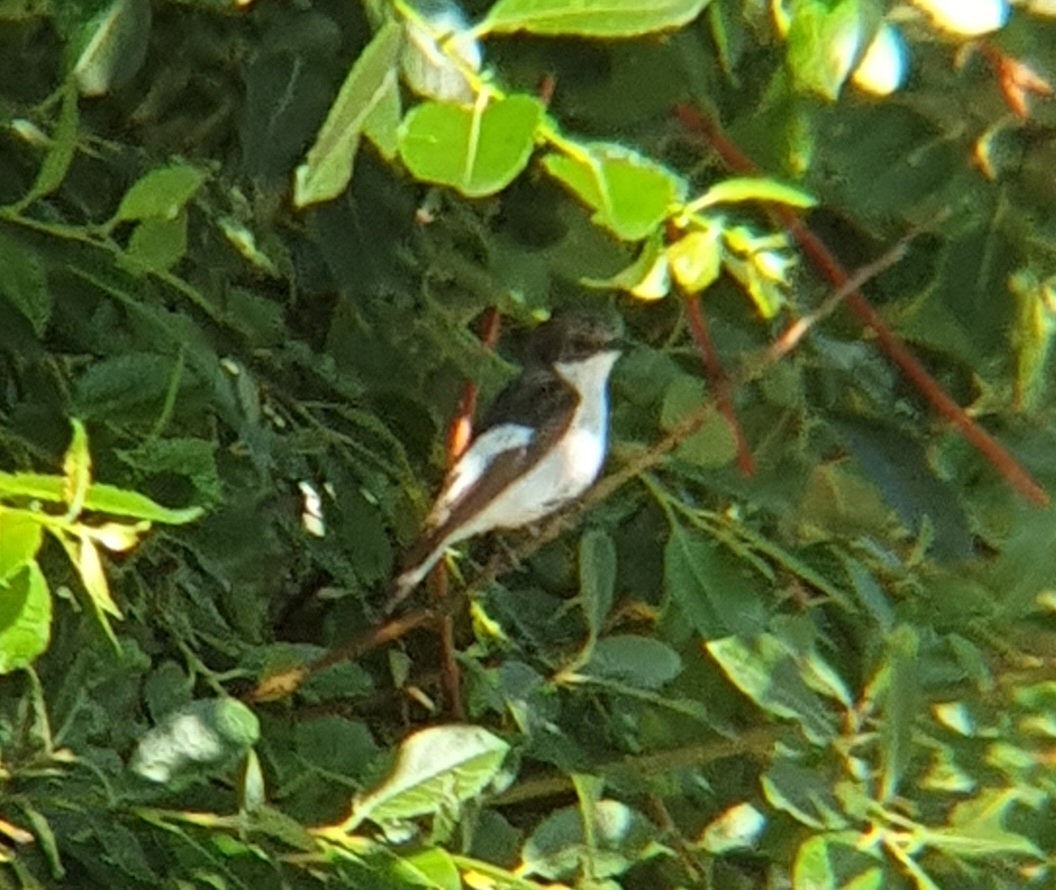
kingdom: Animalia
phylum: Chordata
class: Aves
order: Passeriformes
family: Muscicapidae
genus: Ficedula
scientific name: Ficedula hypoleuca
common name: European pied flycatcher
